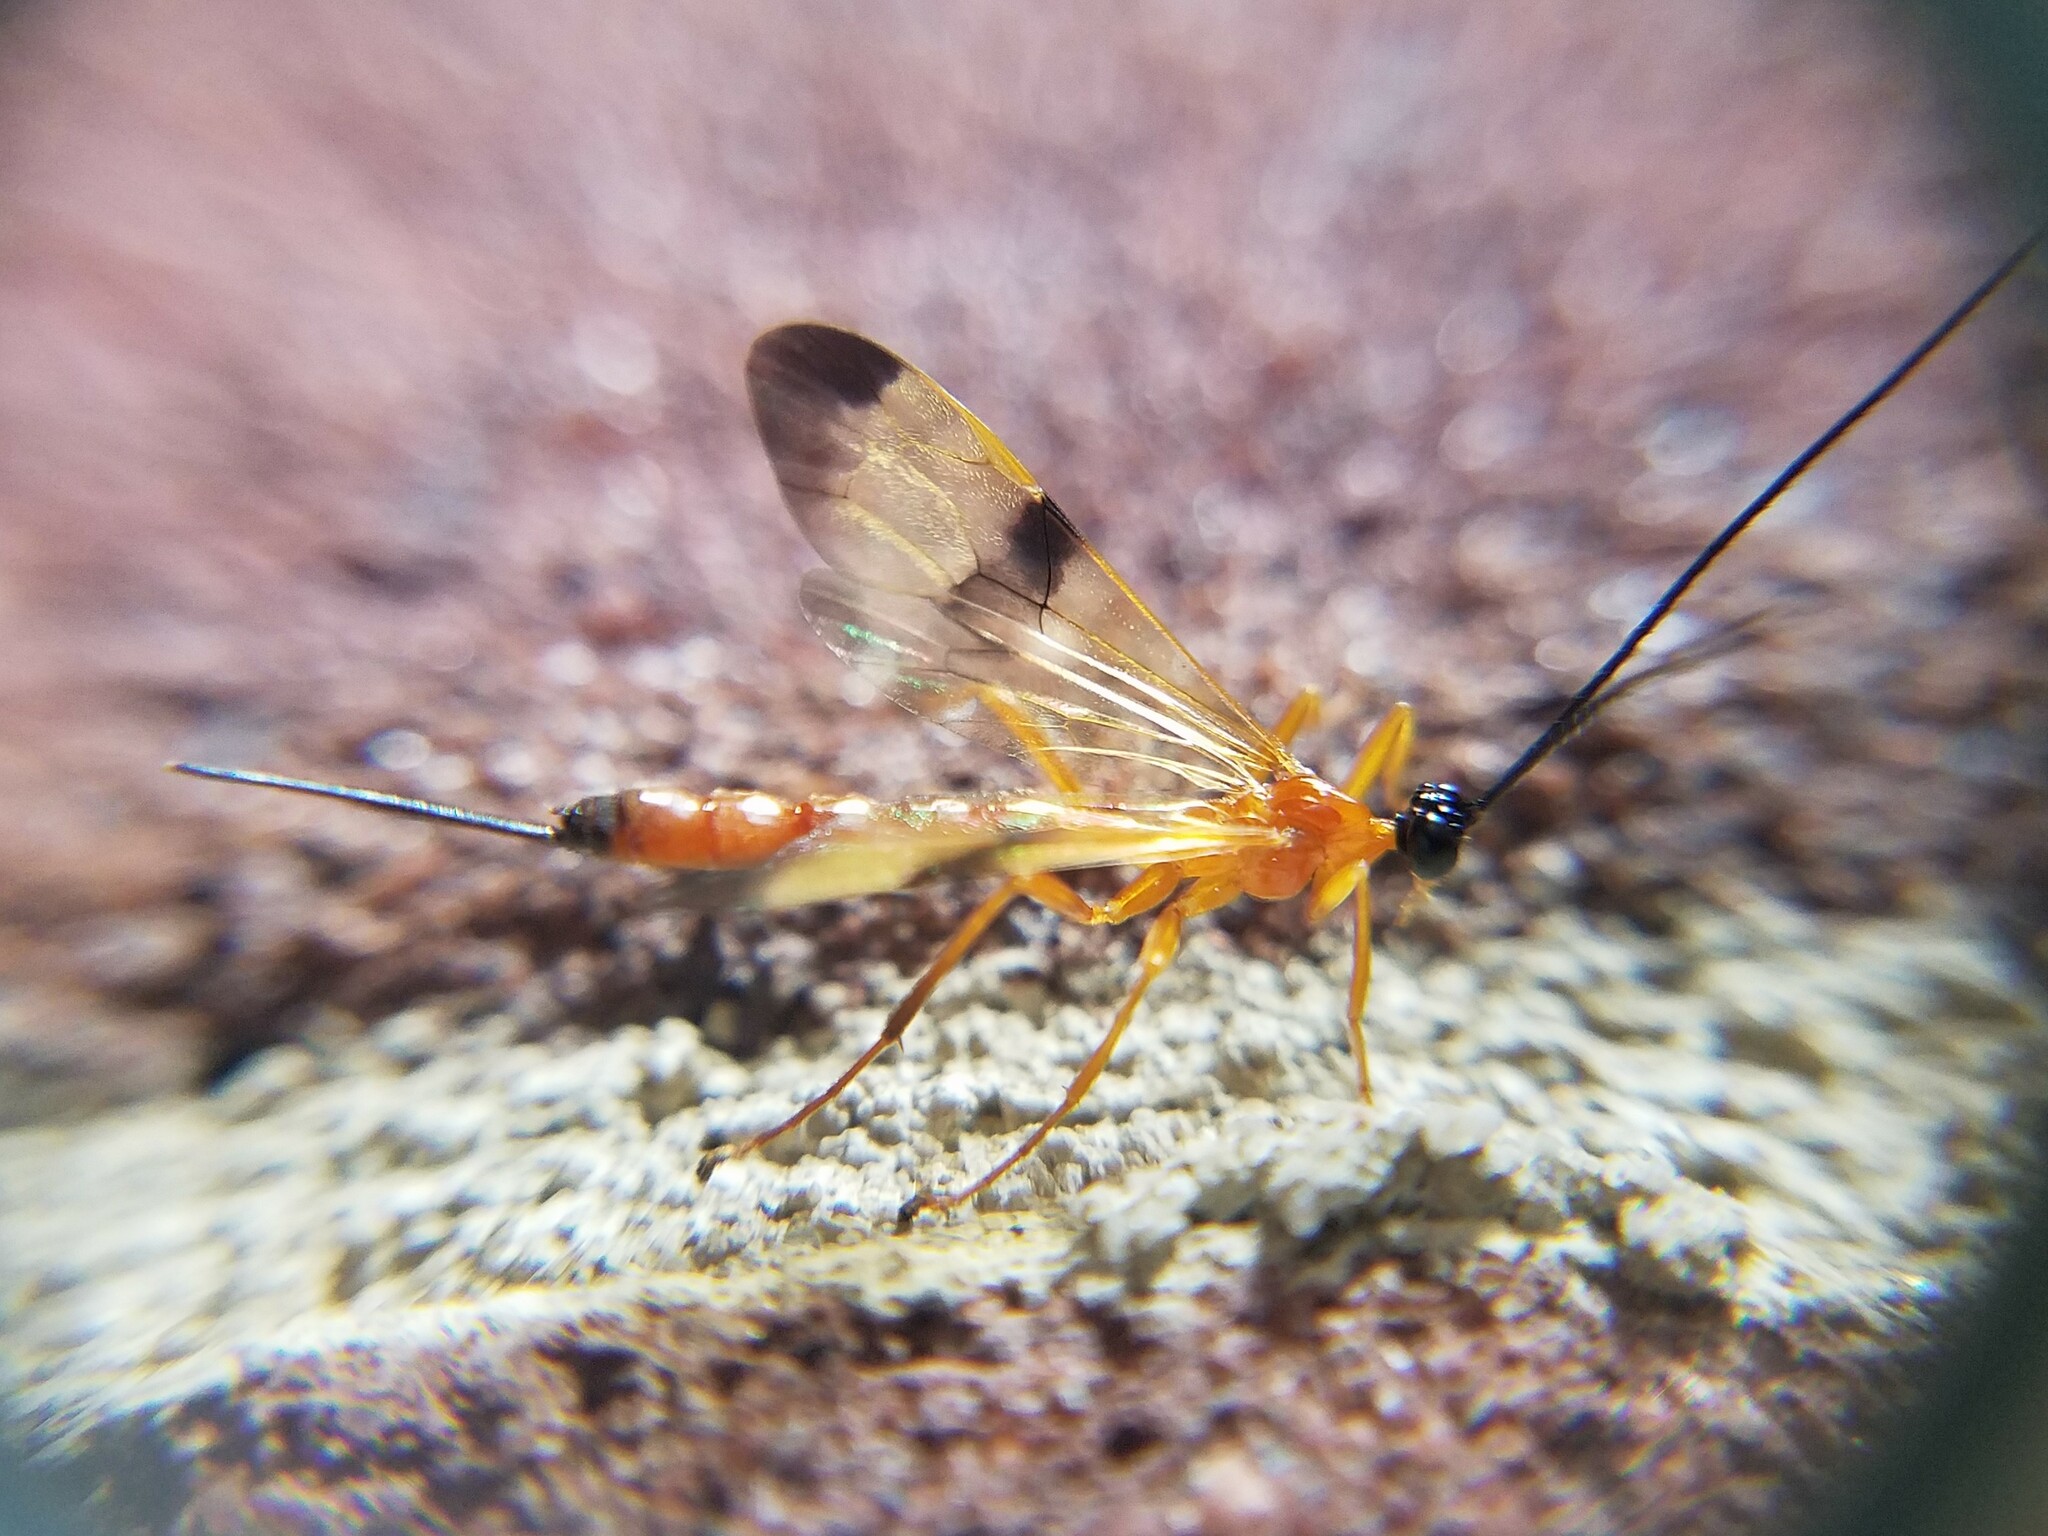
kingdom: Animalia
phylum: Arthropoda
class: Insecta
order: Hymenoptera
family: Ichneumonidae
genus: Acrotaphus
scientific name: Acrotaphus wiltii
